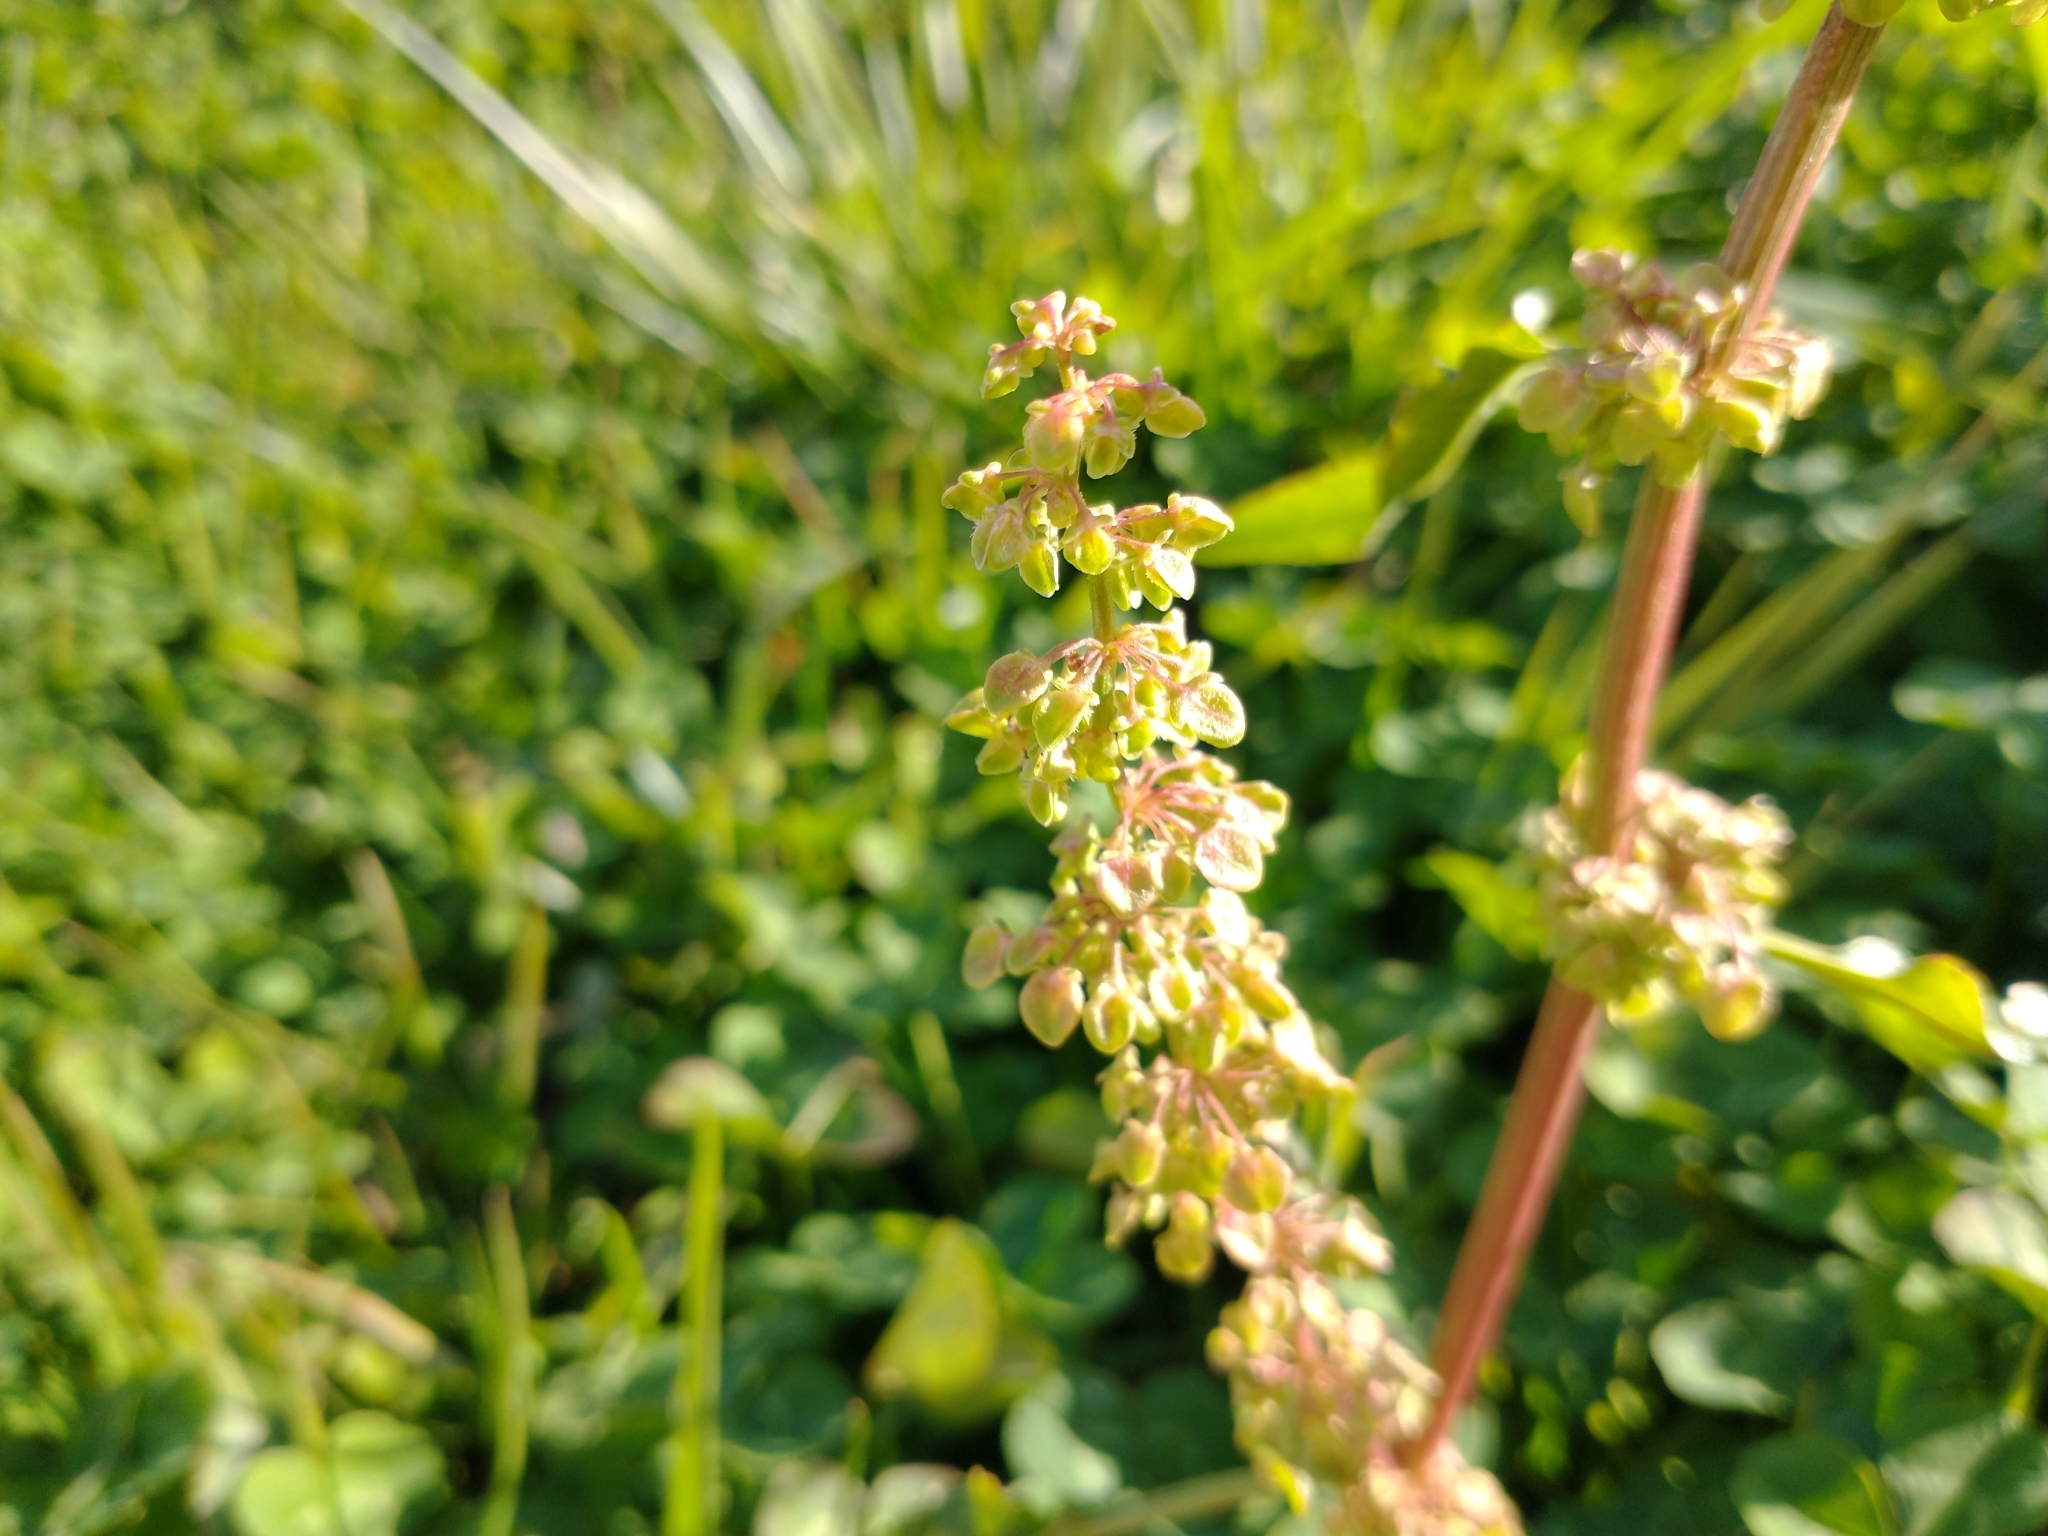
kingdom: Plantae
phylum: Tracheophyta
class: Magnoliopsida
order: Caryophyllales
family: Polygonaceae
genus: Rumex
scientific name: Rumex crispus
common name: Curled dock
